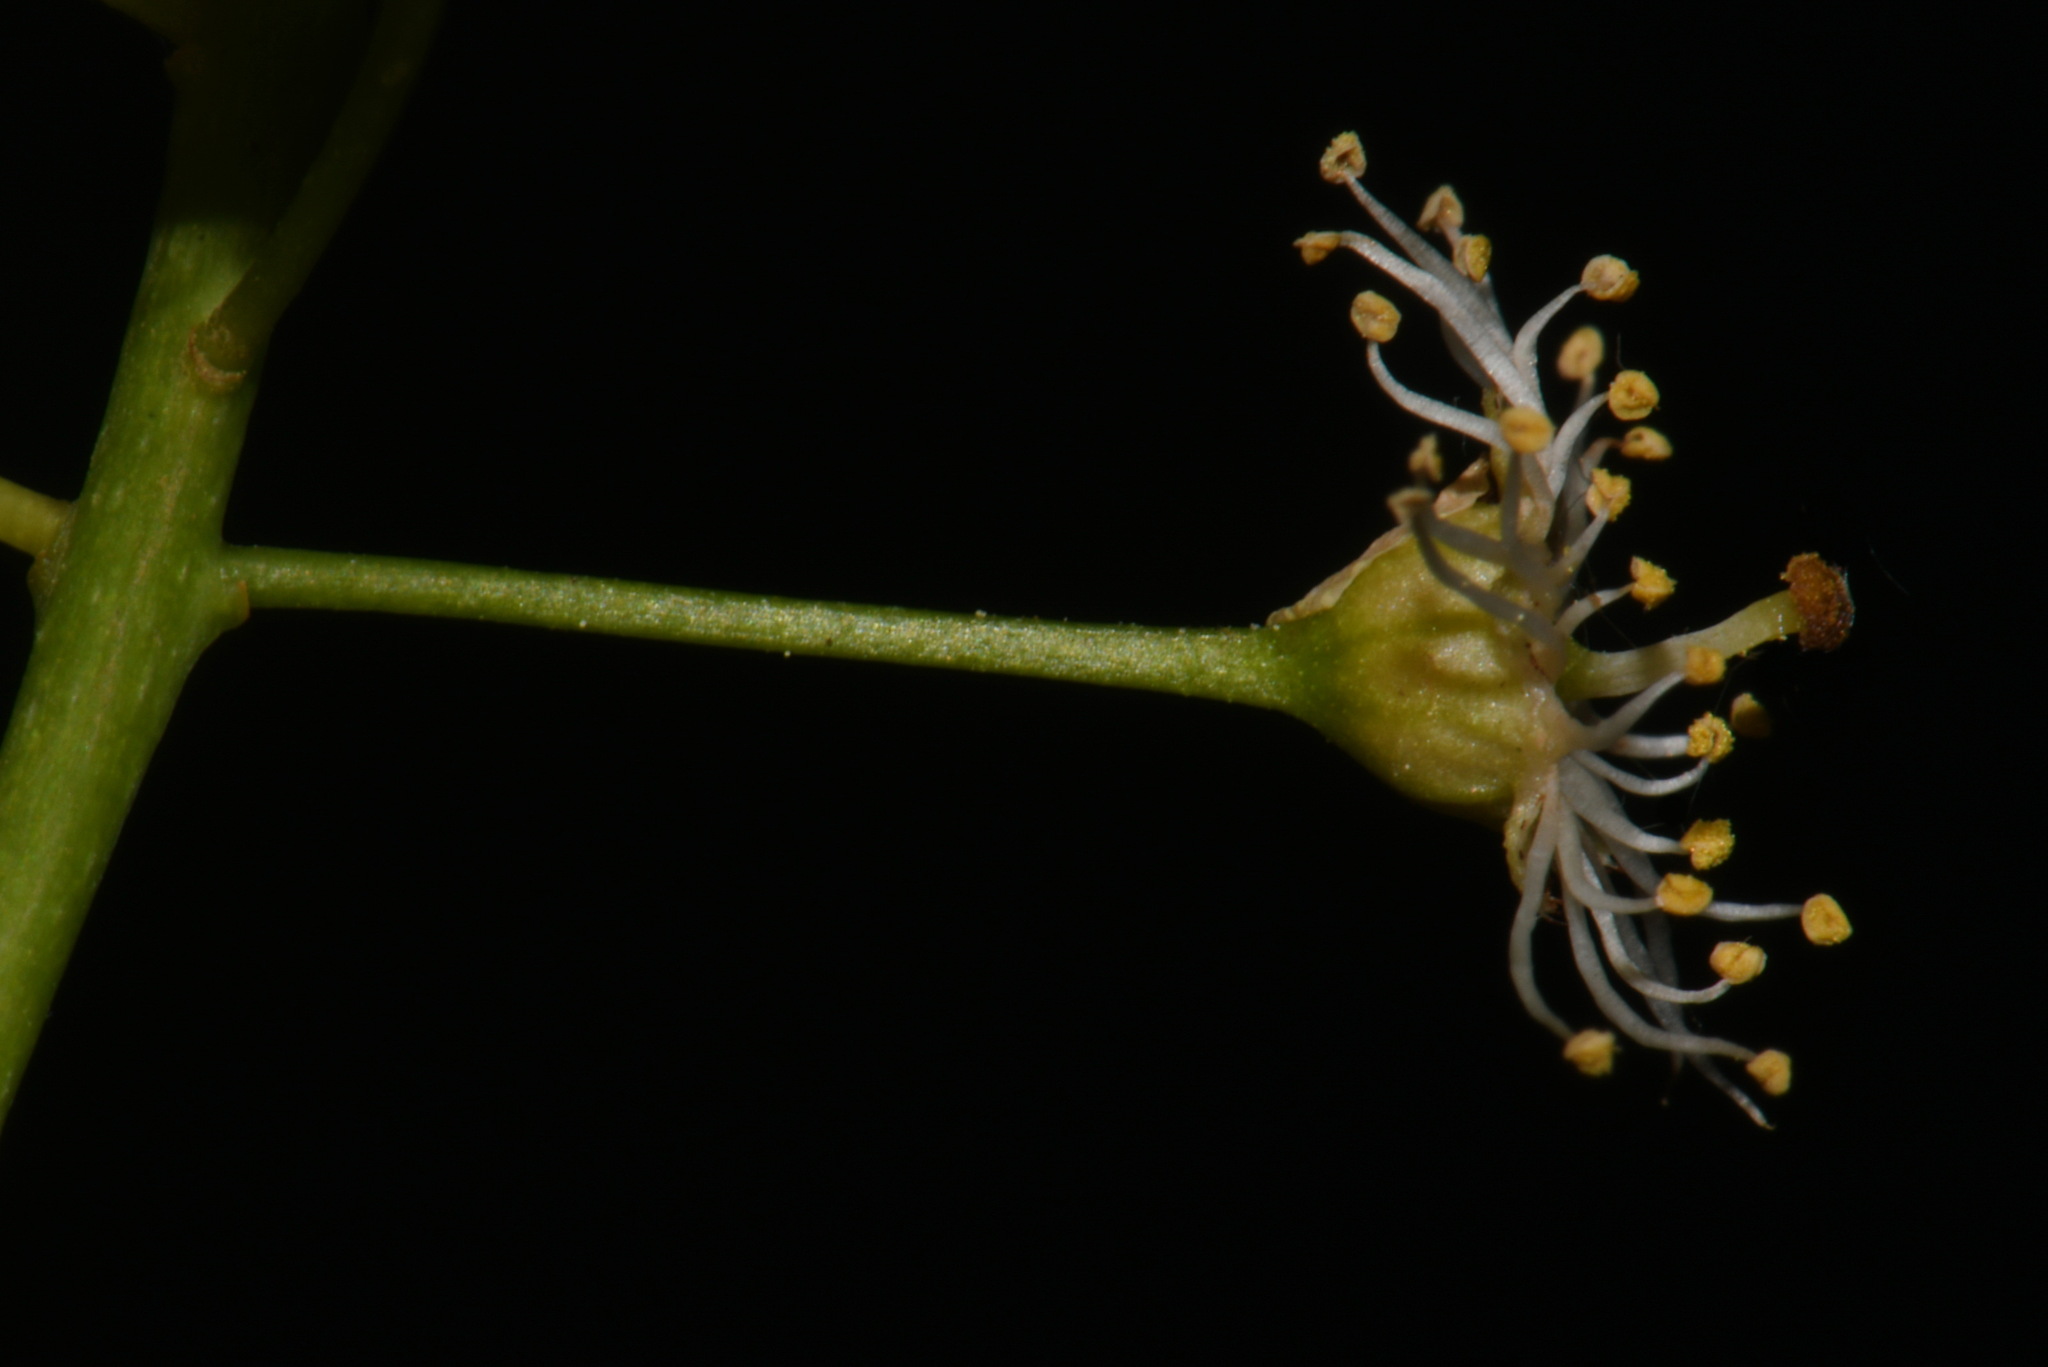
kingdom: Plantae
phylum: Tracheophyta
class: Magnoliopsida
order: Rosales
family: Rosaceae
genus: Prunus
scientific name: Prunus virginiana
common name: Chokecherry
